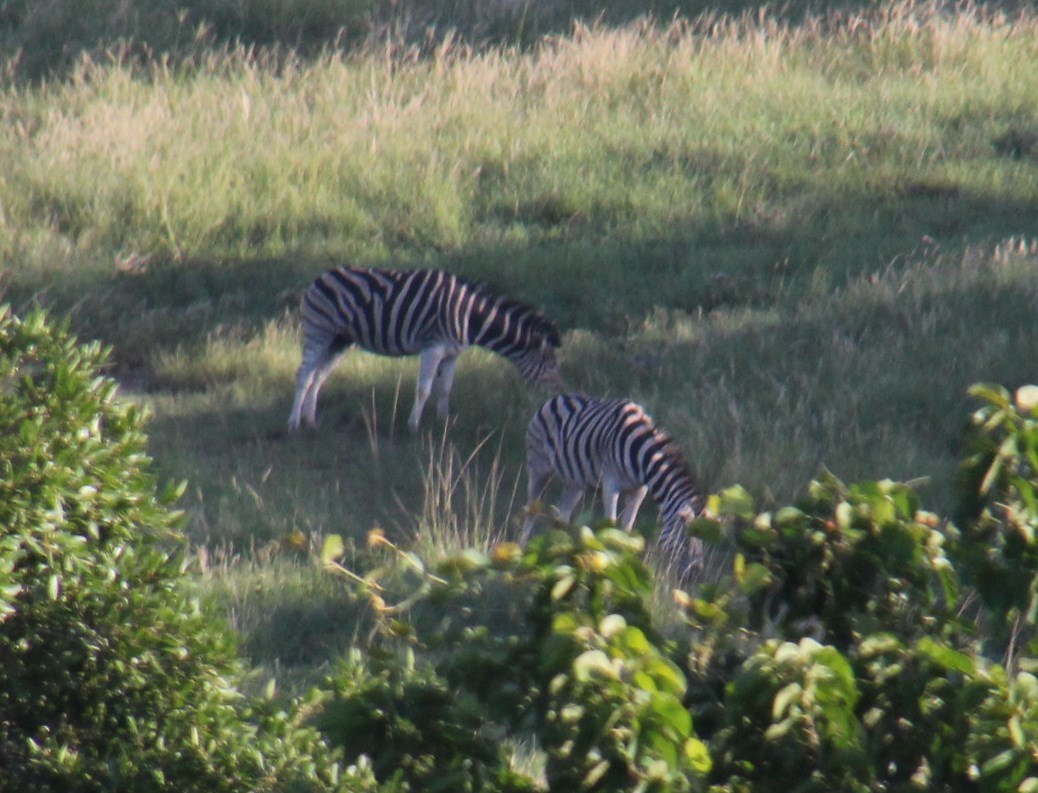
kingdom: Animalia
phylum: Chordata
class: Mammalia
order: Perissodactyla
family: Equidae
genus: Equus
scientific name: Equus quagga
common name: Plains zebra
